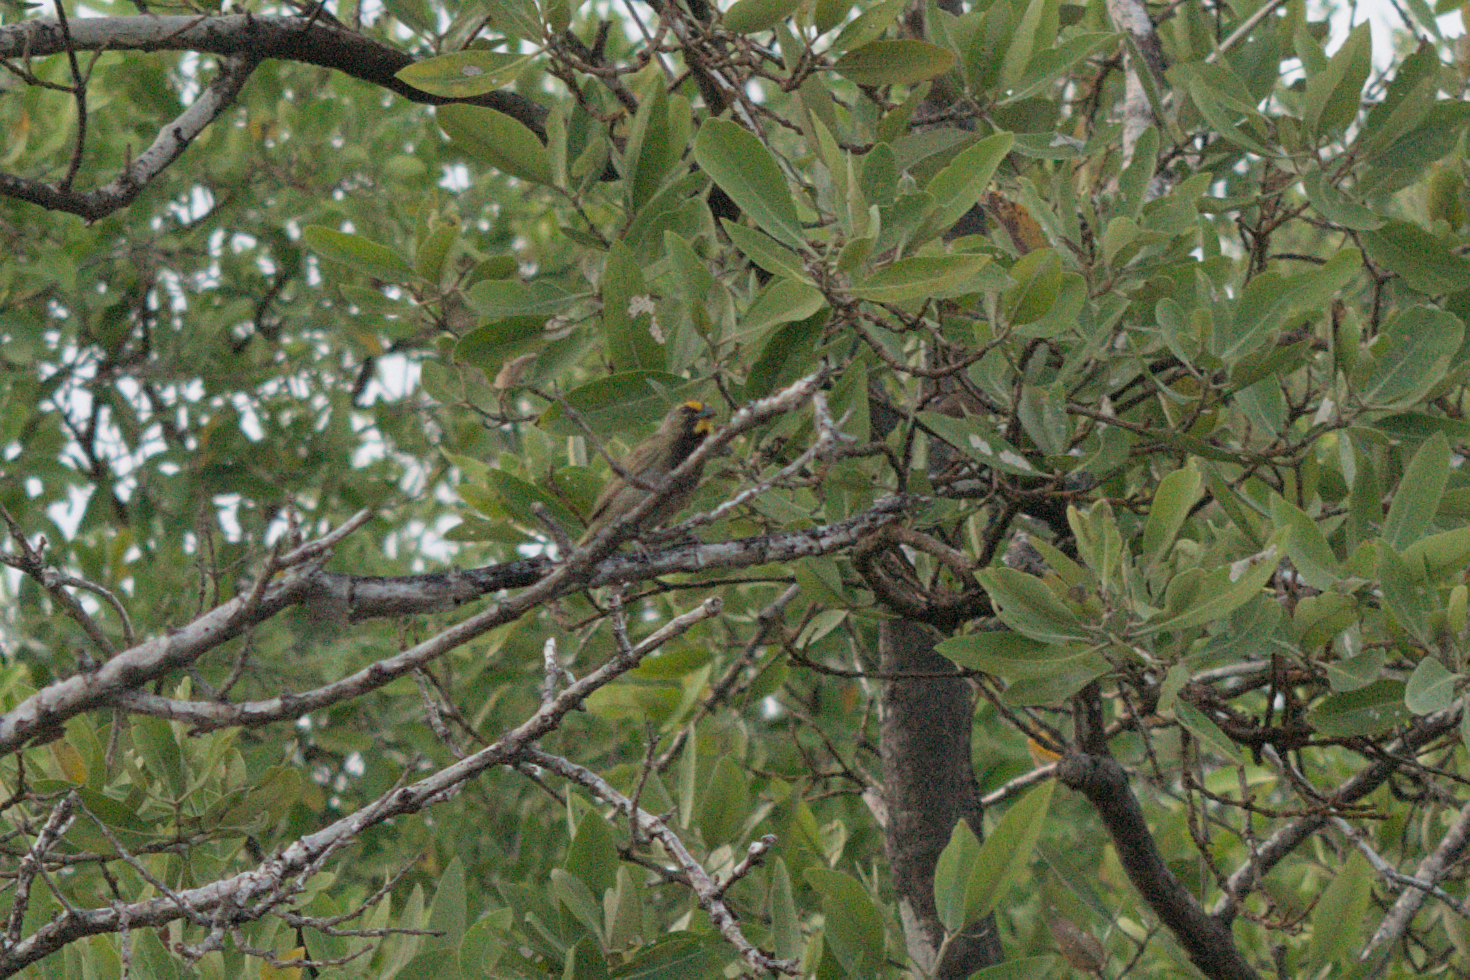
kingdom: Animalia
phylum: Chordata
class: Aves
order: Passeriformes
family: Thraupidae
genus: Tiaris
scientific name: Tiaris olivaceus
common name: Yellow-faced grassquit
